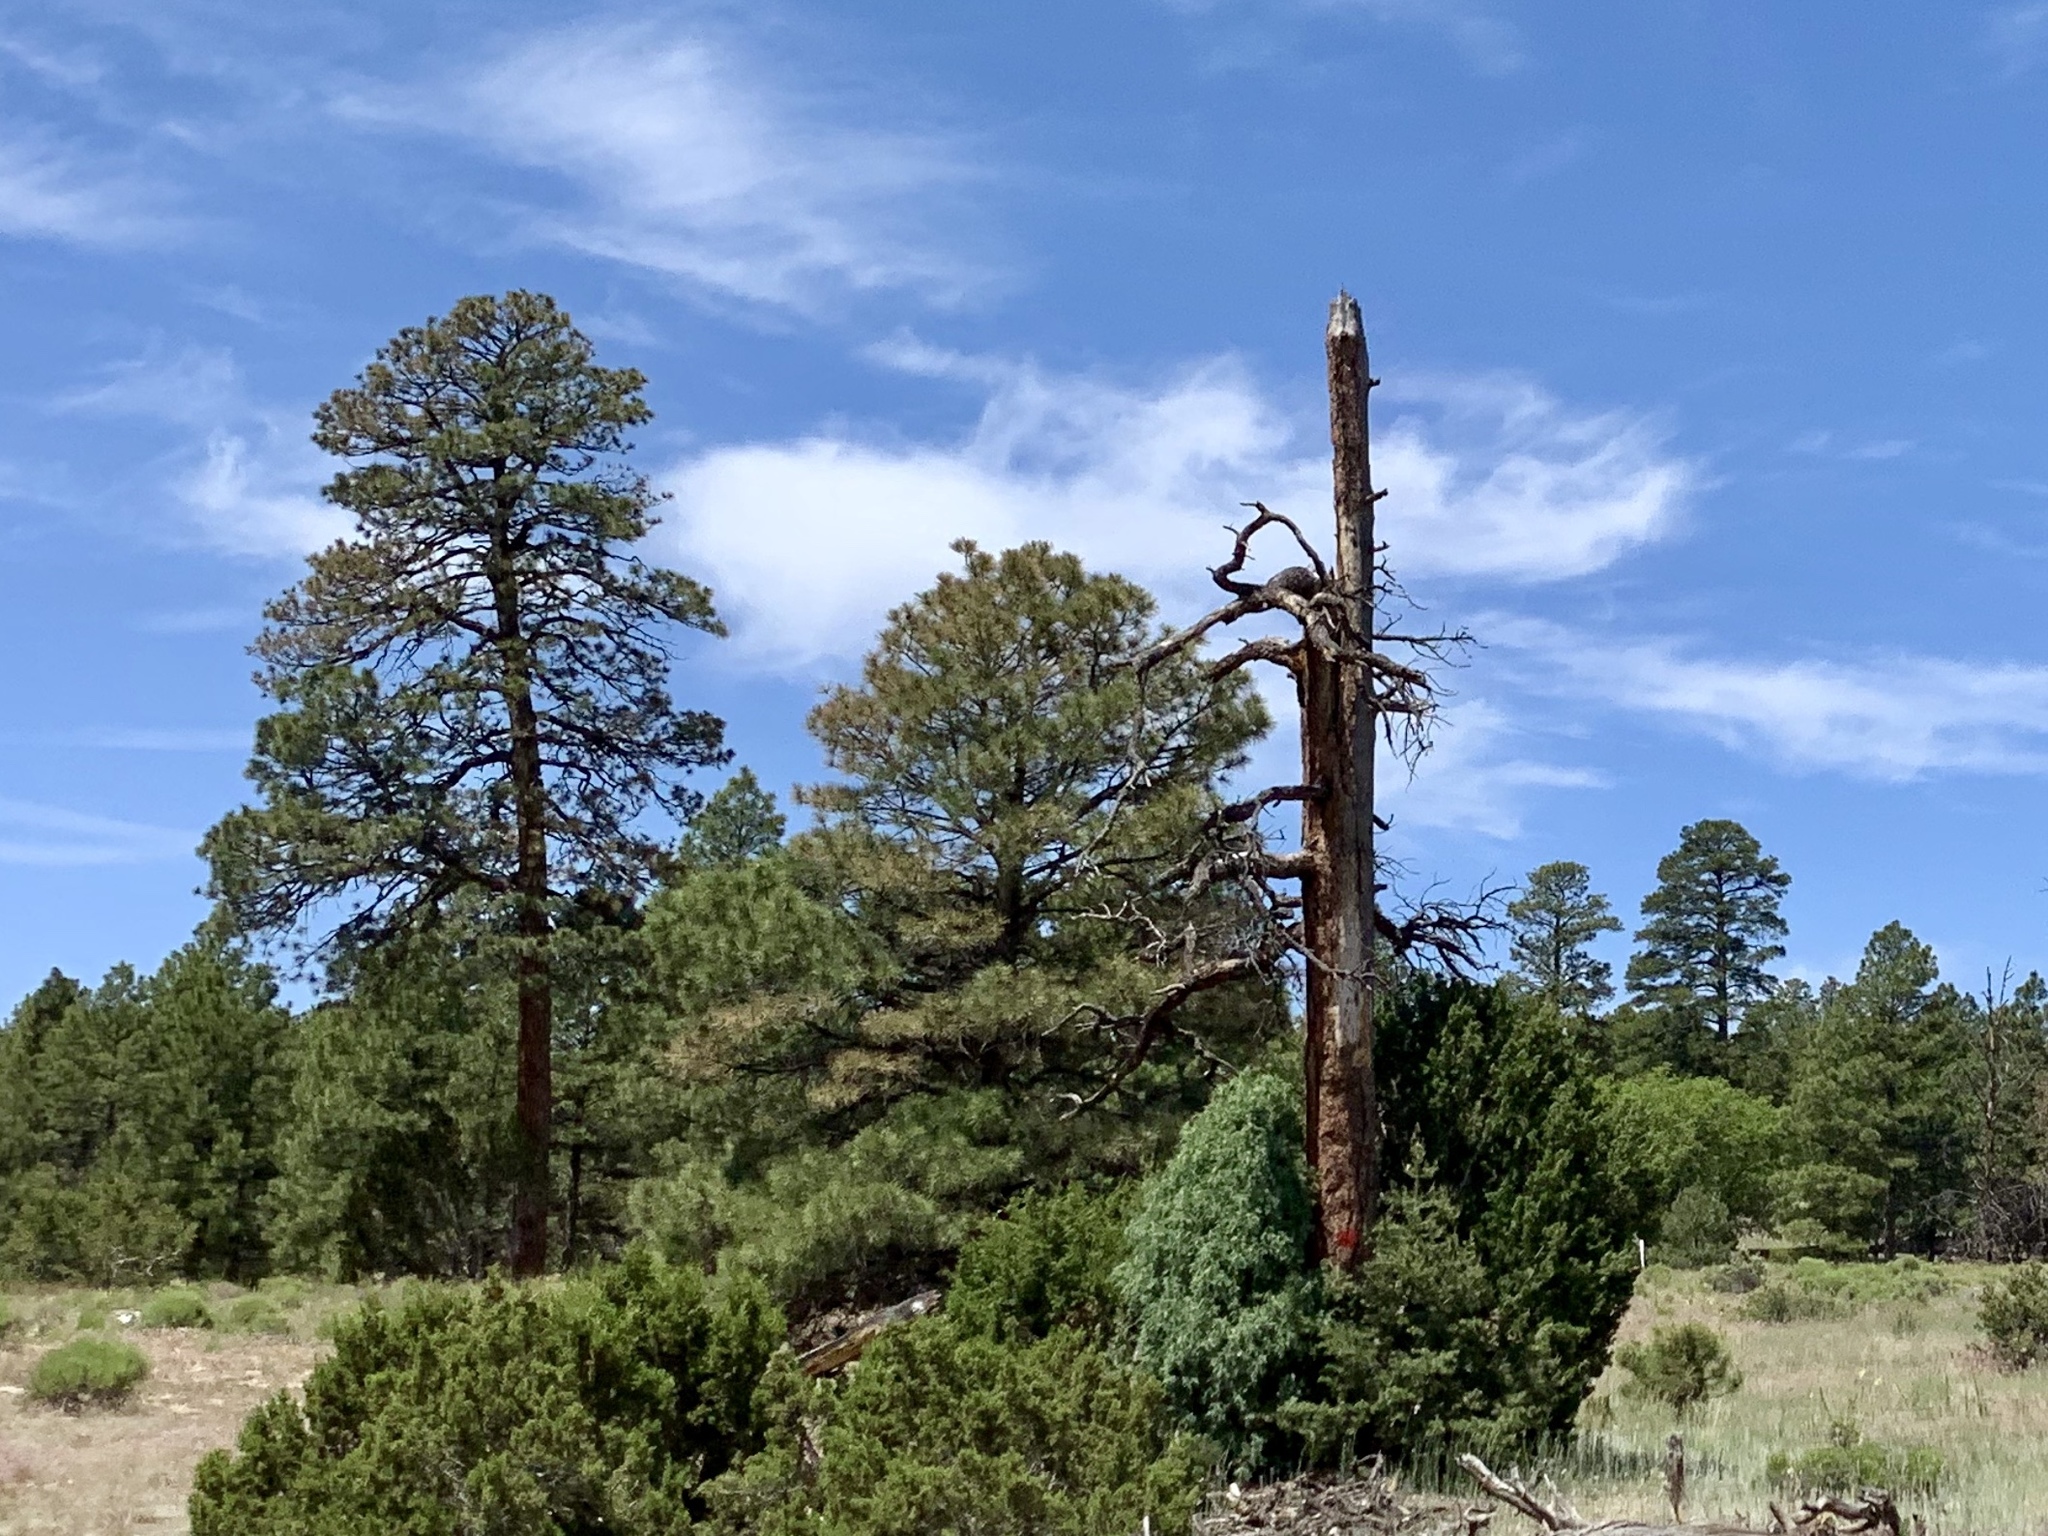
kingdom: Plantae
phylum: Tracheophyta
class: Pinopsida
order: Pinales
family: Pinaceae
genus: Pinus
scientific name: Pinus ponderosa
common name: Western yellow-pine
